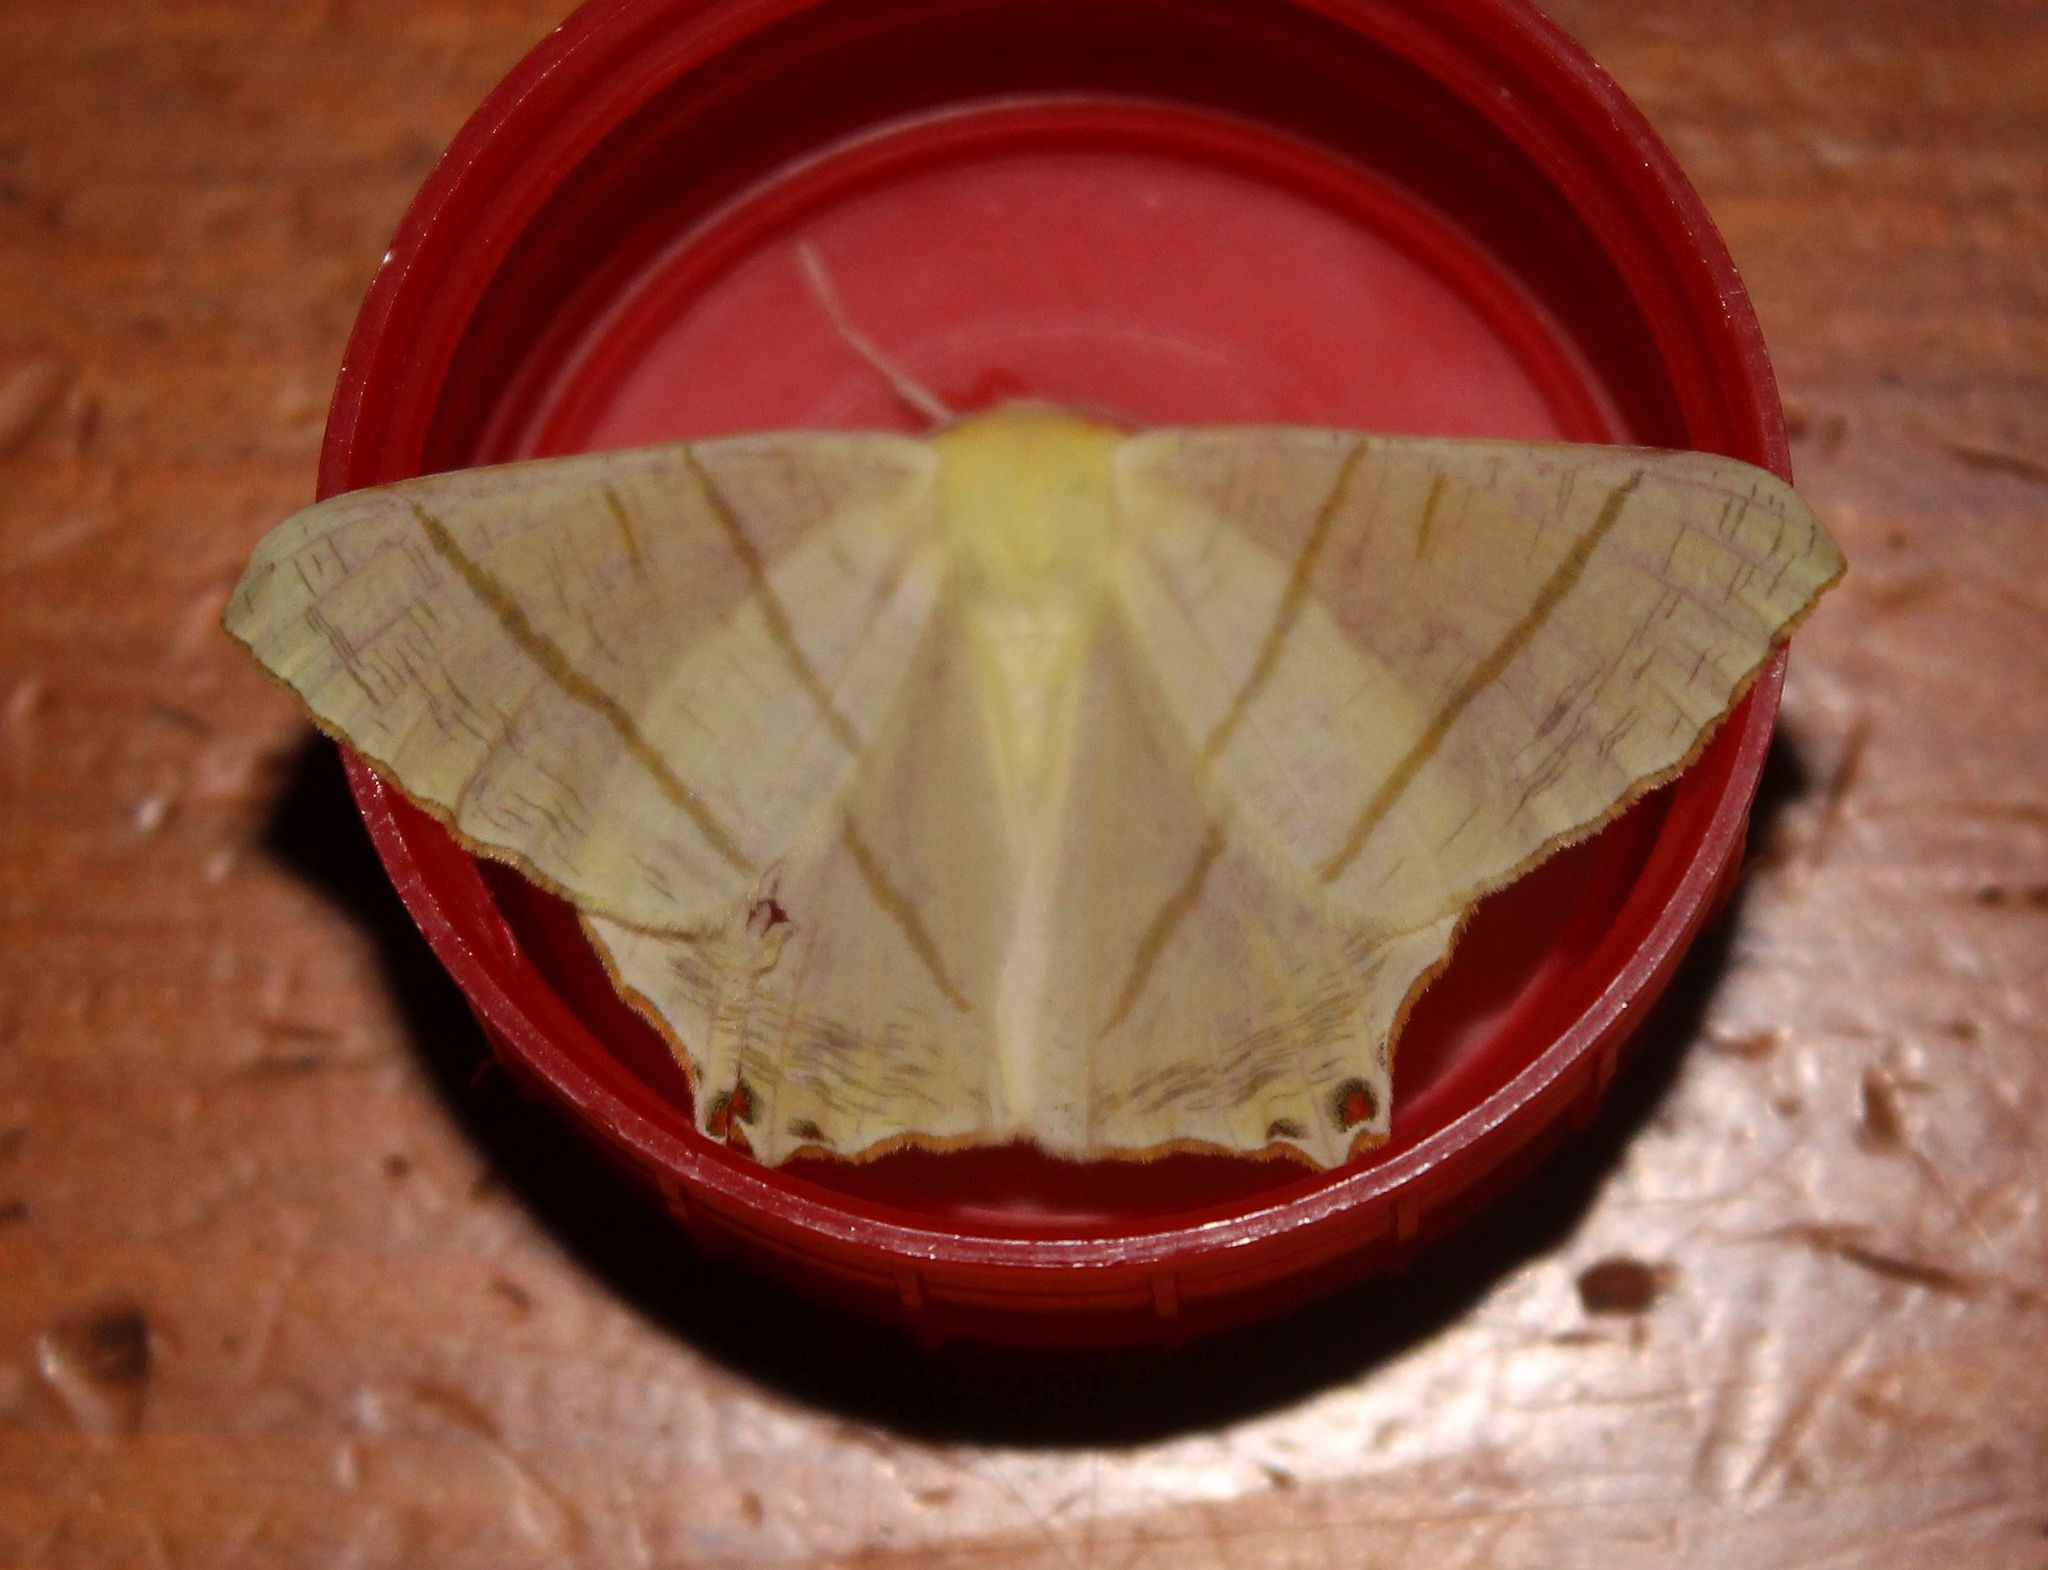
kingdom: Animalia
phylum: Arthropoda
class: Insecta
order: Lepidoptera
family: Geometridae
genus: Ourapteryx
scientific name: Ourapteryx sambucaria
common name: Swallow-tailed moth
